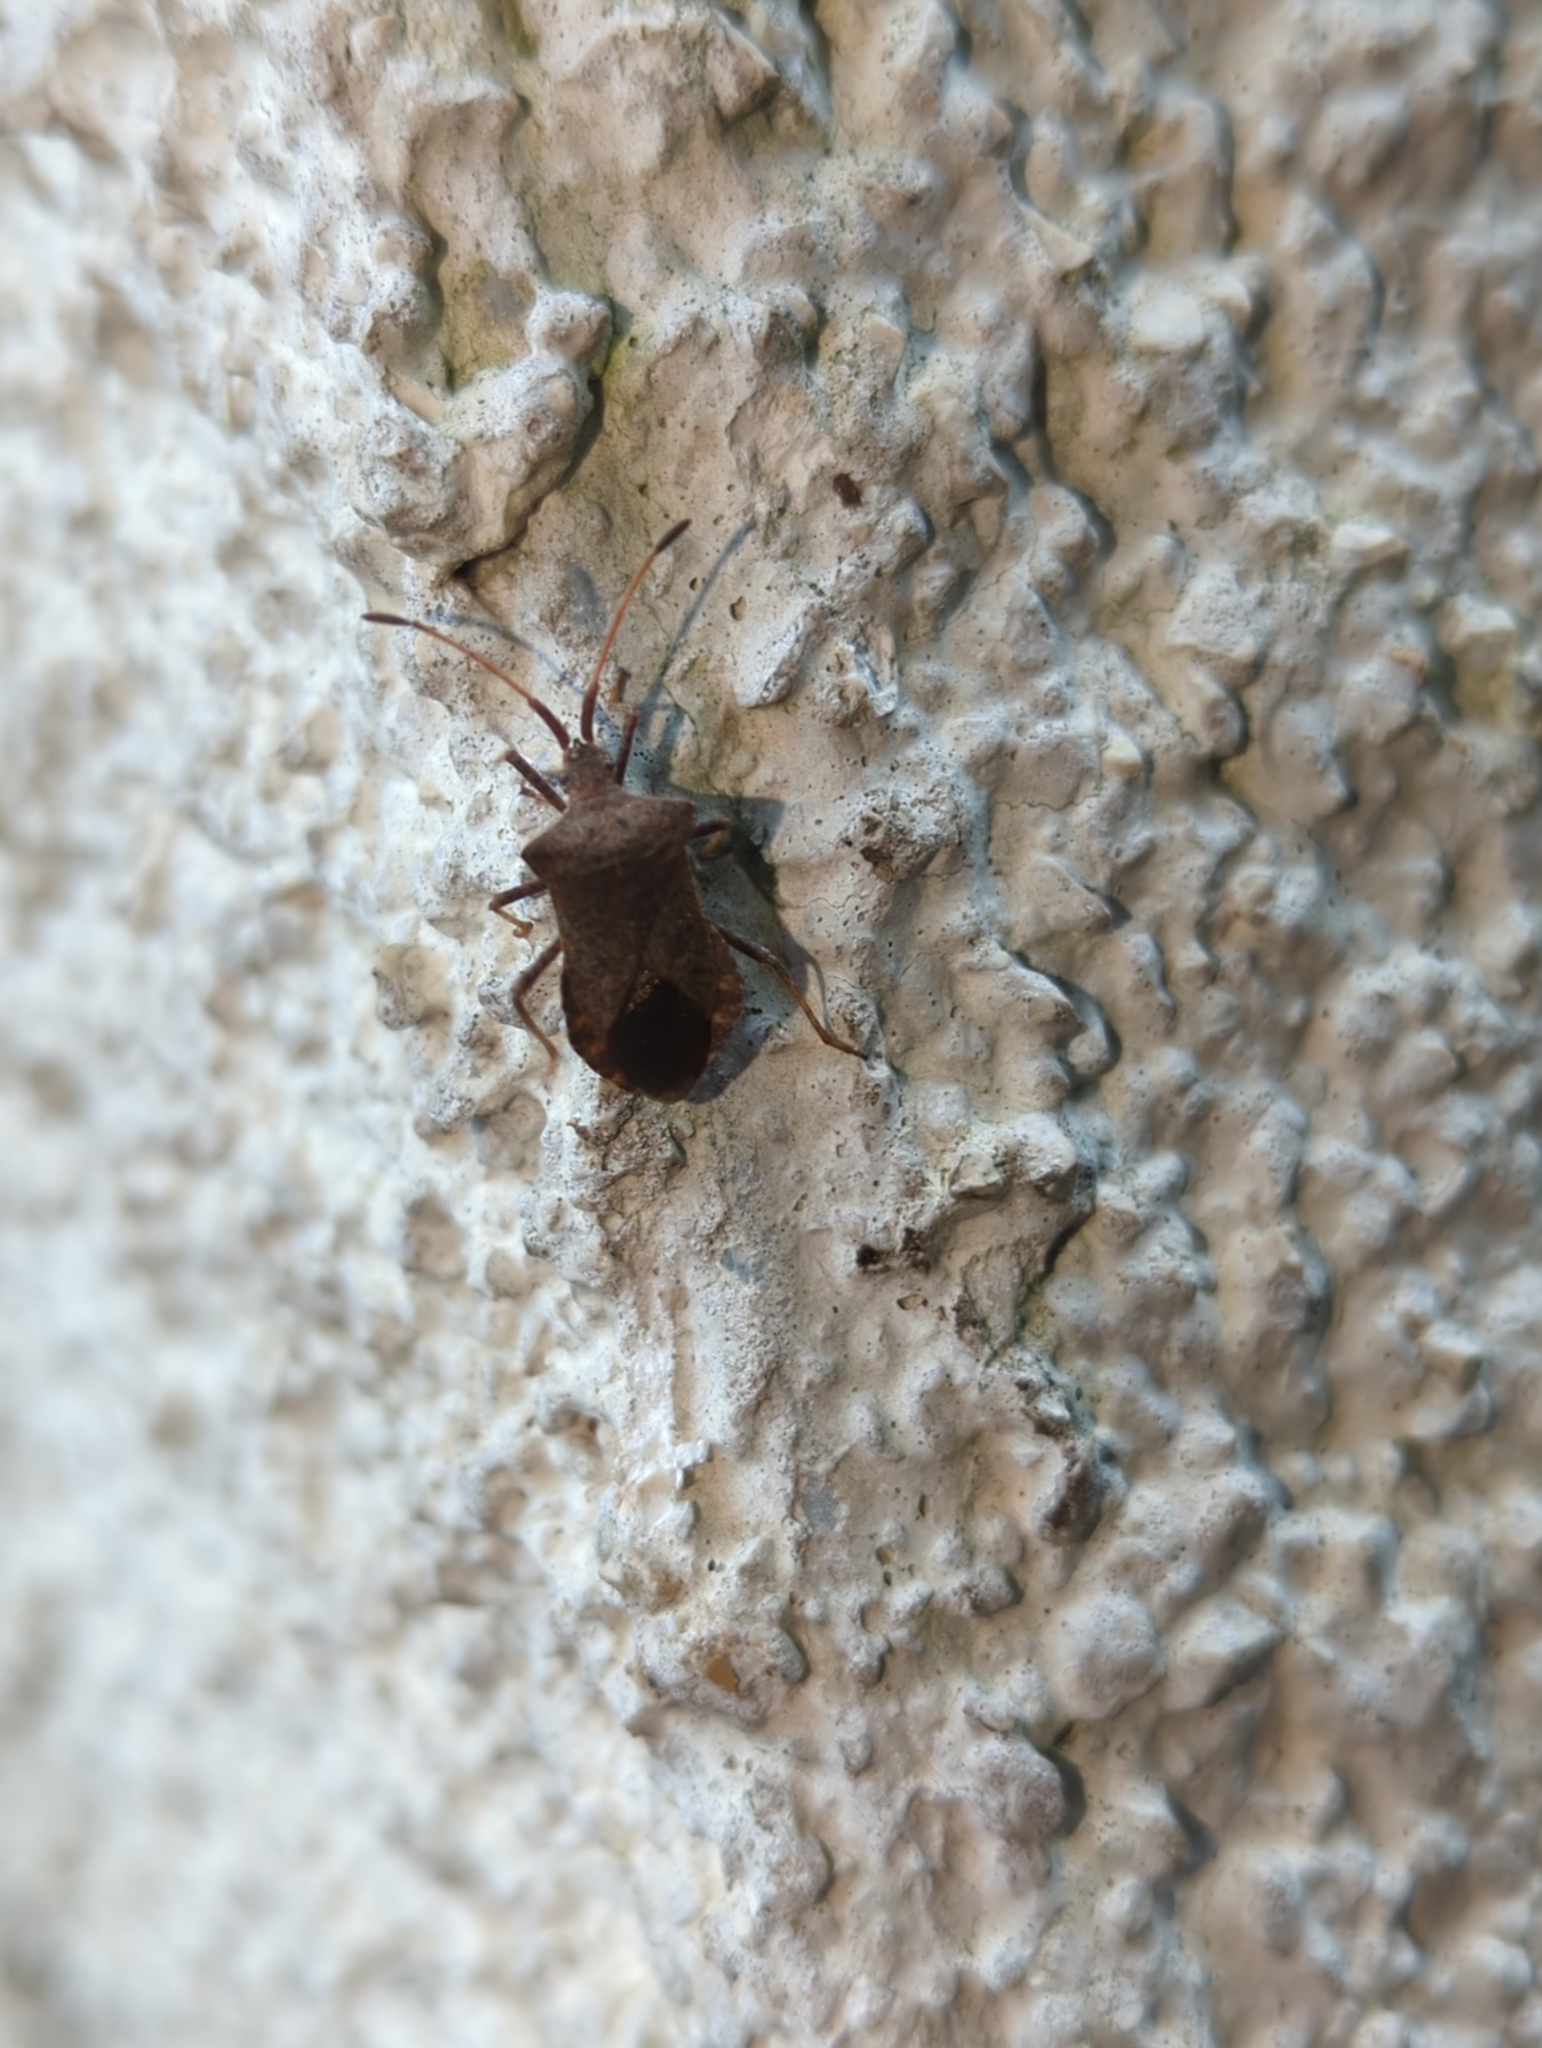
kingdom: Animalia
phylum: Arthropoda
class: Insecta
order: Hemiptera
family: Coreidae
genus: Coreus
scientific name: Coreus marginatus
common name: Dock bug
